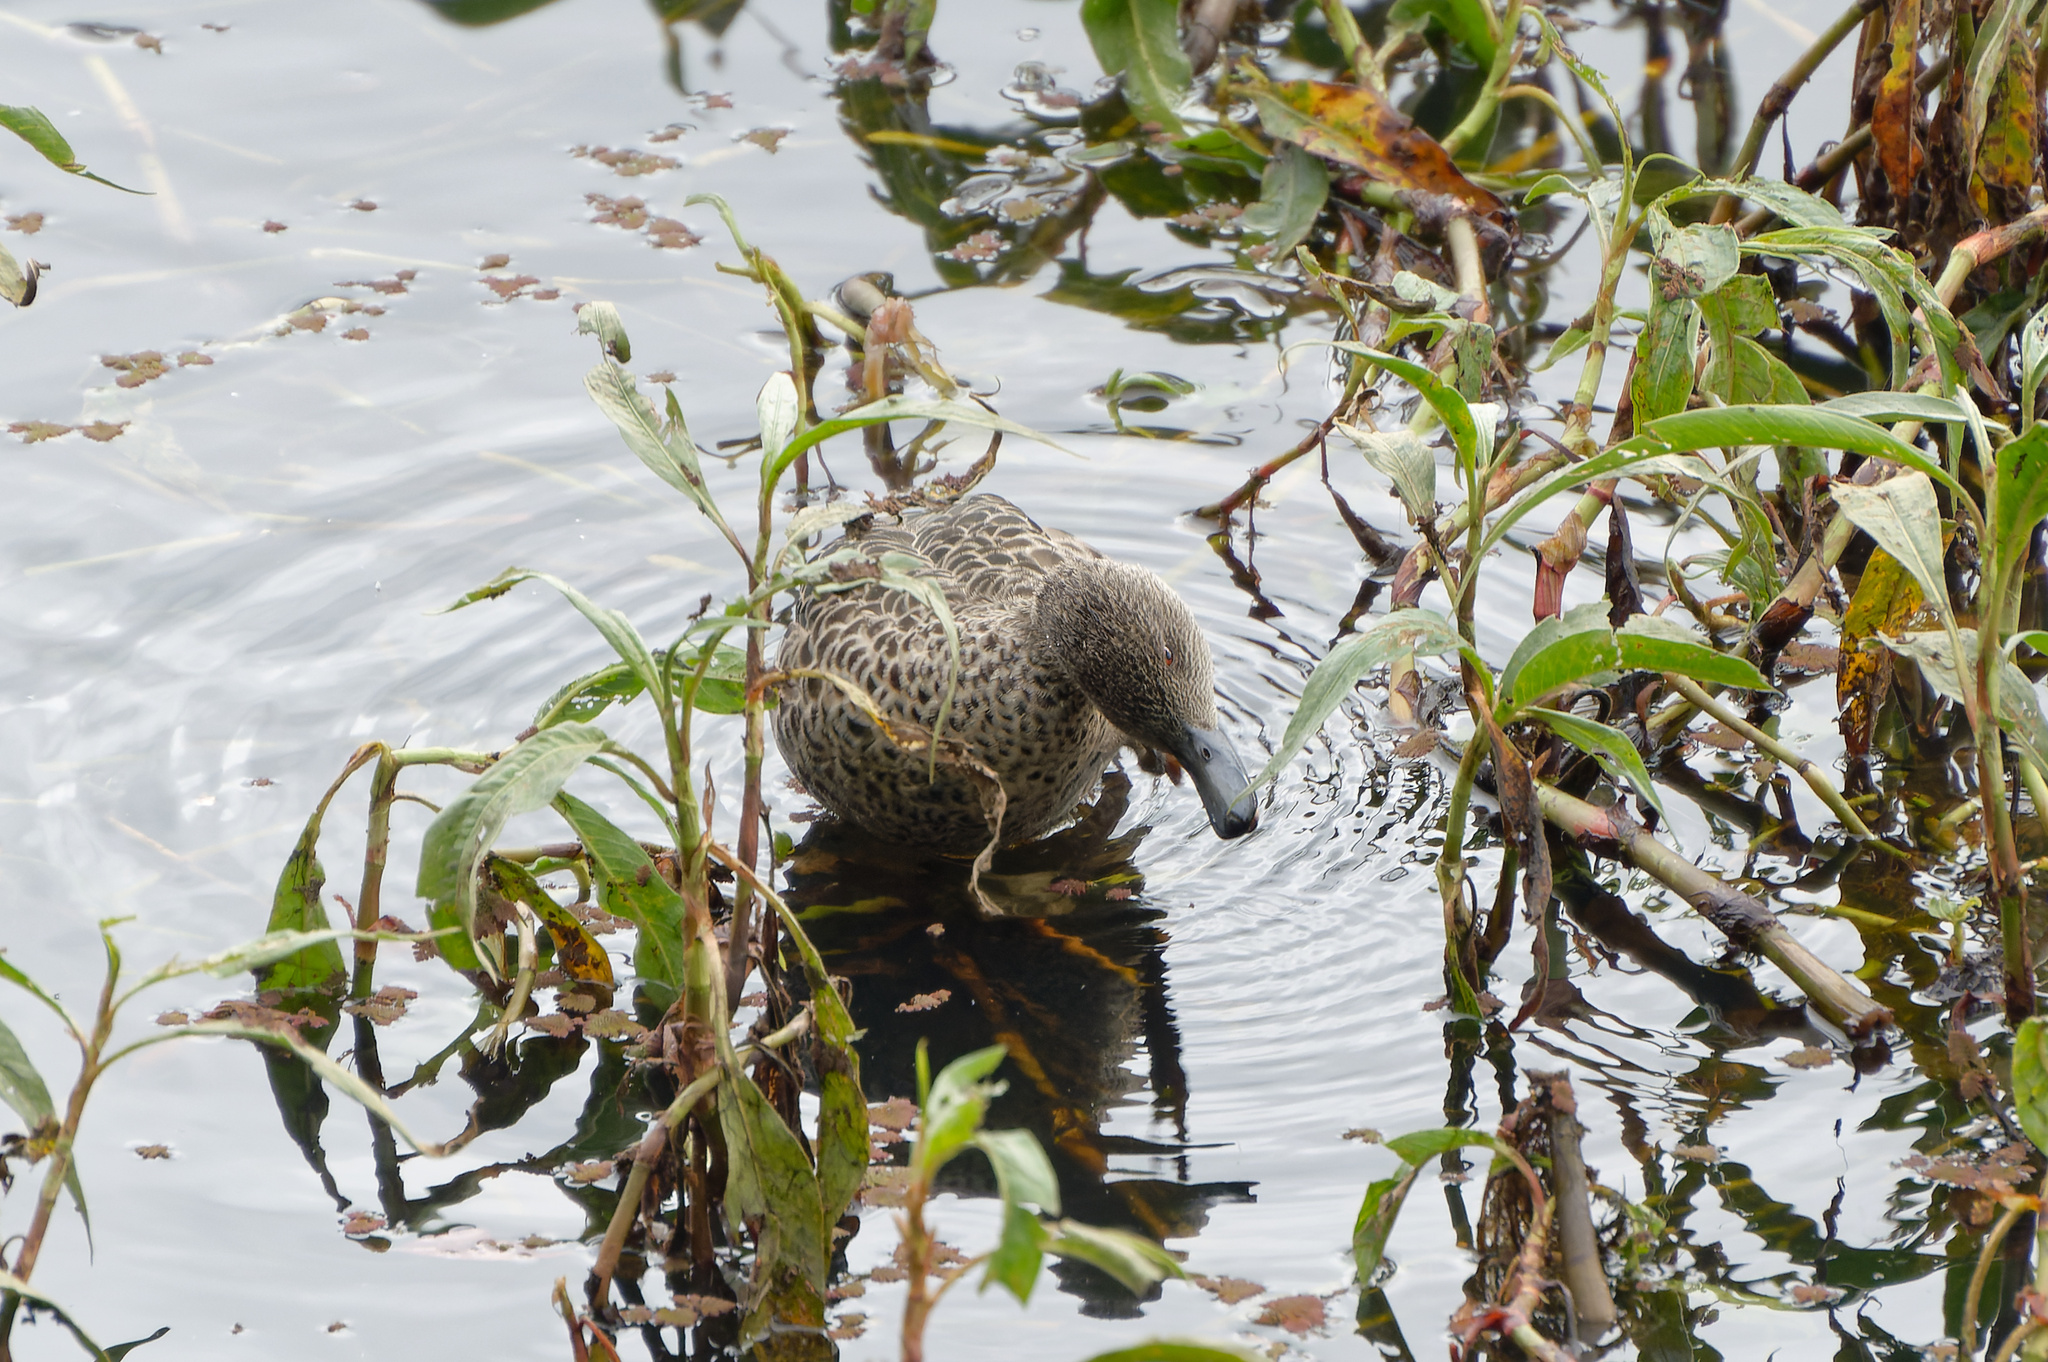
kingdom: Animalia
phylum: Chordata
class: Aves
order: Anseriformes
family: Anatidae
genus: Anas
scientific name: Anas gracilis
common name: Grey teal
